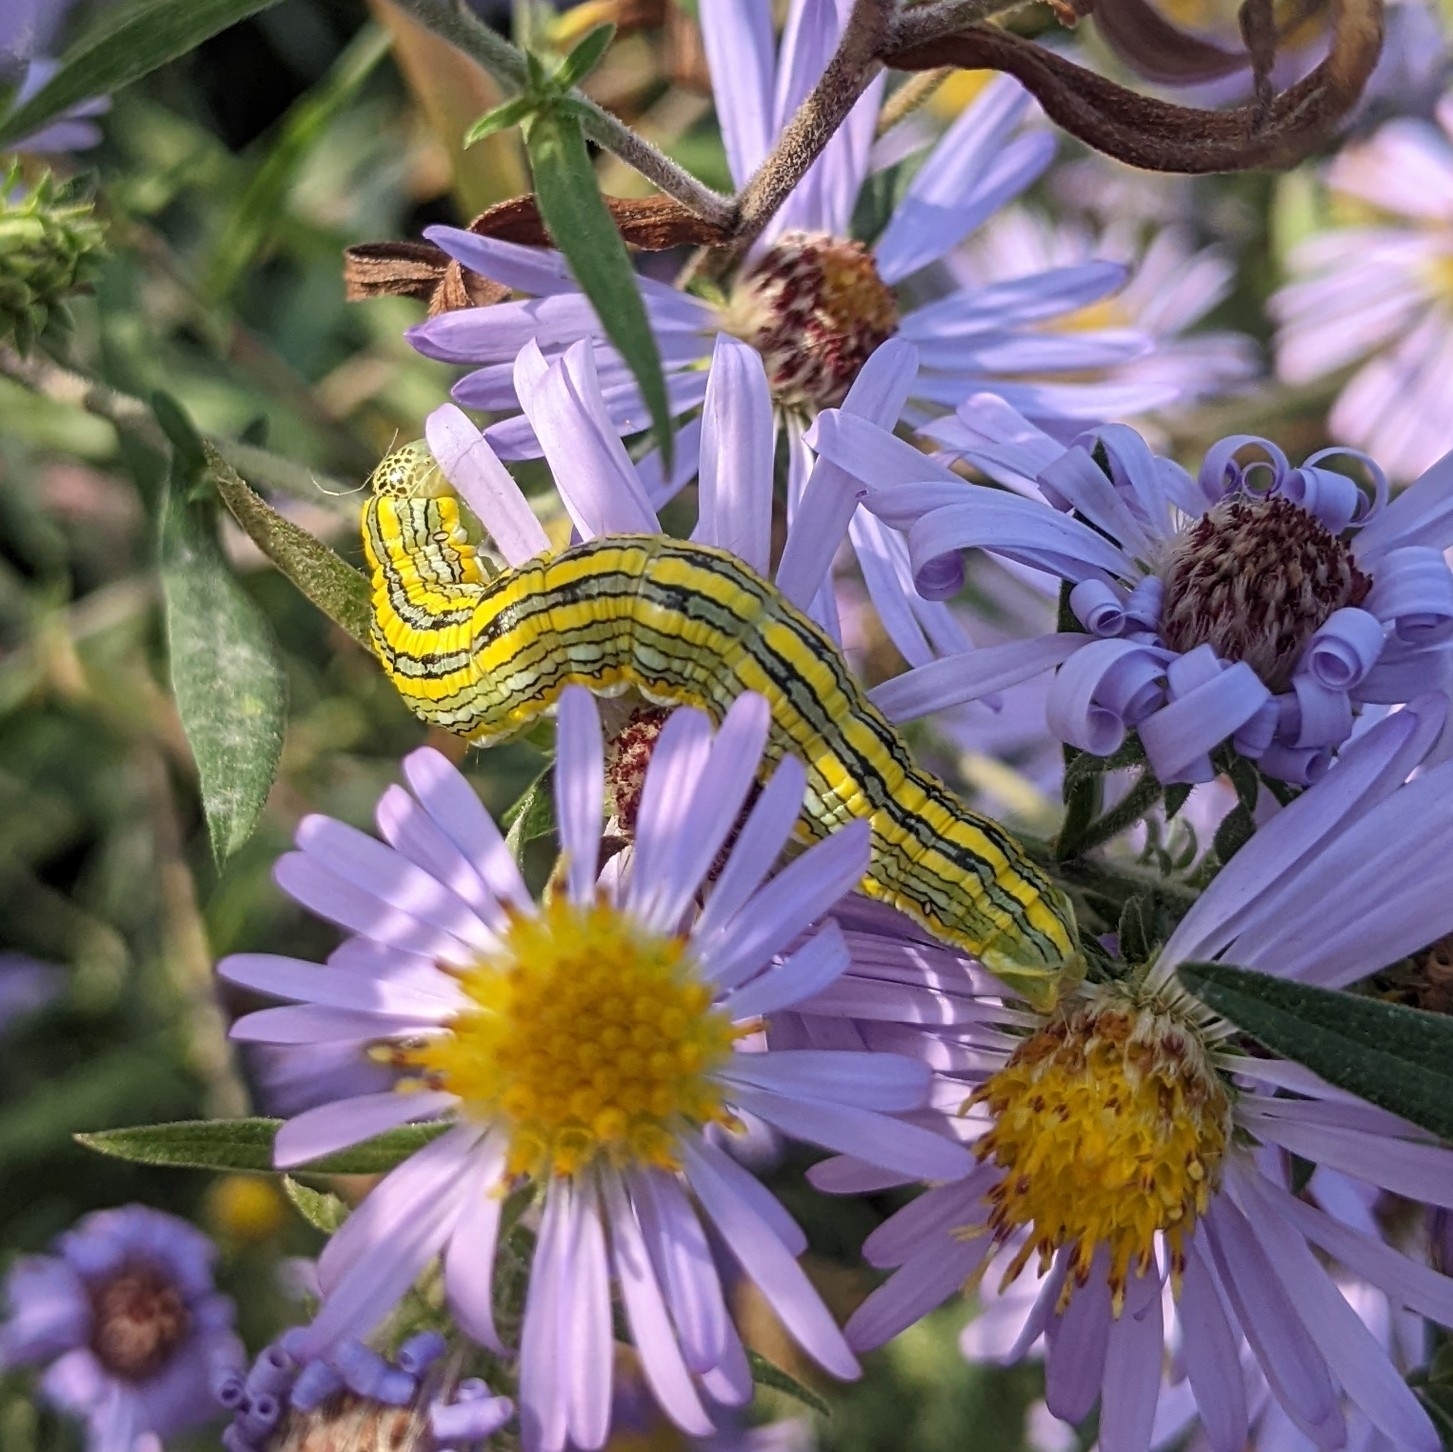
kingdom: Animalia
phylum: Arthropoda
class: Insecta
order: Lepidoptera
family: Noctuidae
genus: Cucullia
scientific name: Cucullia montanae
